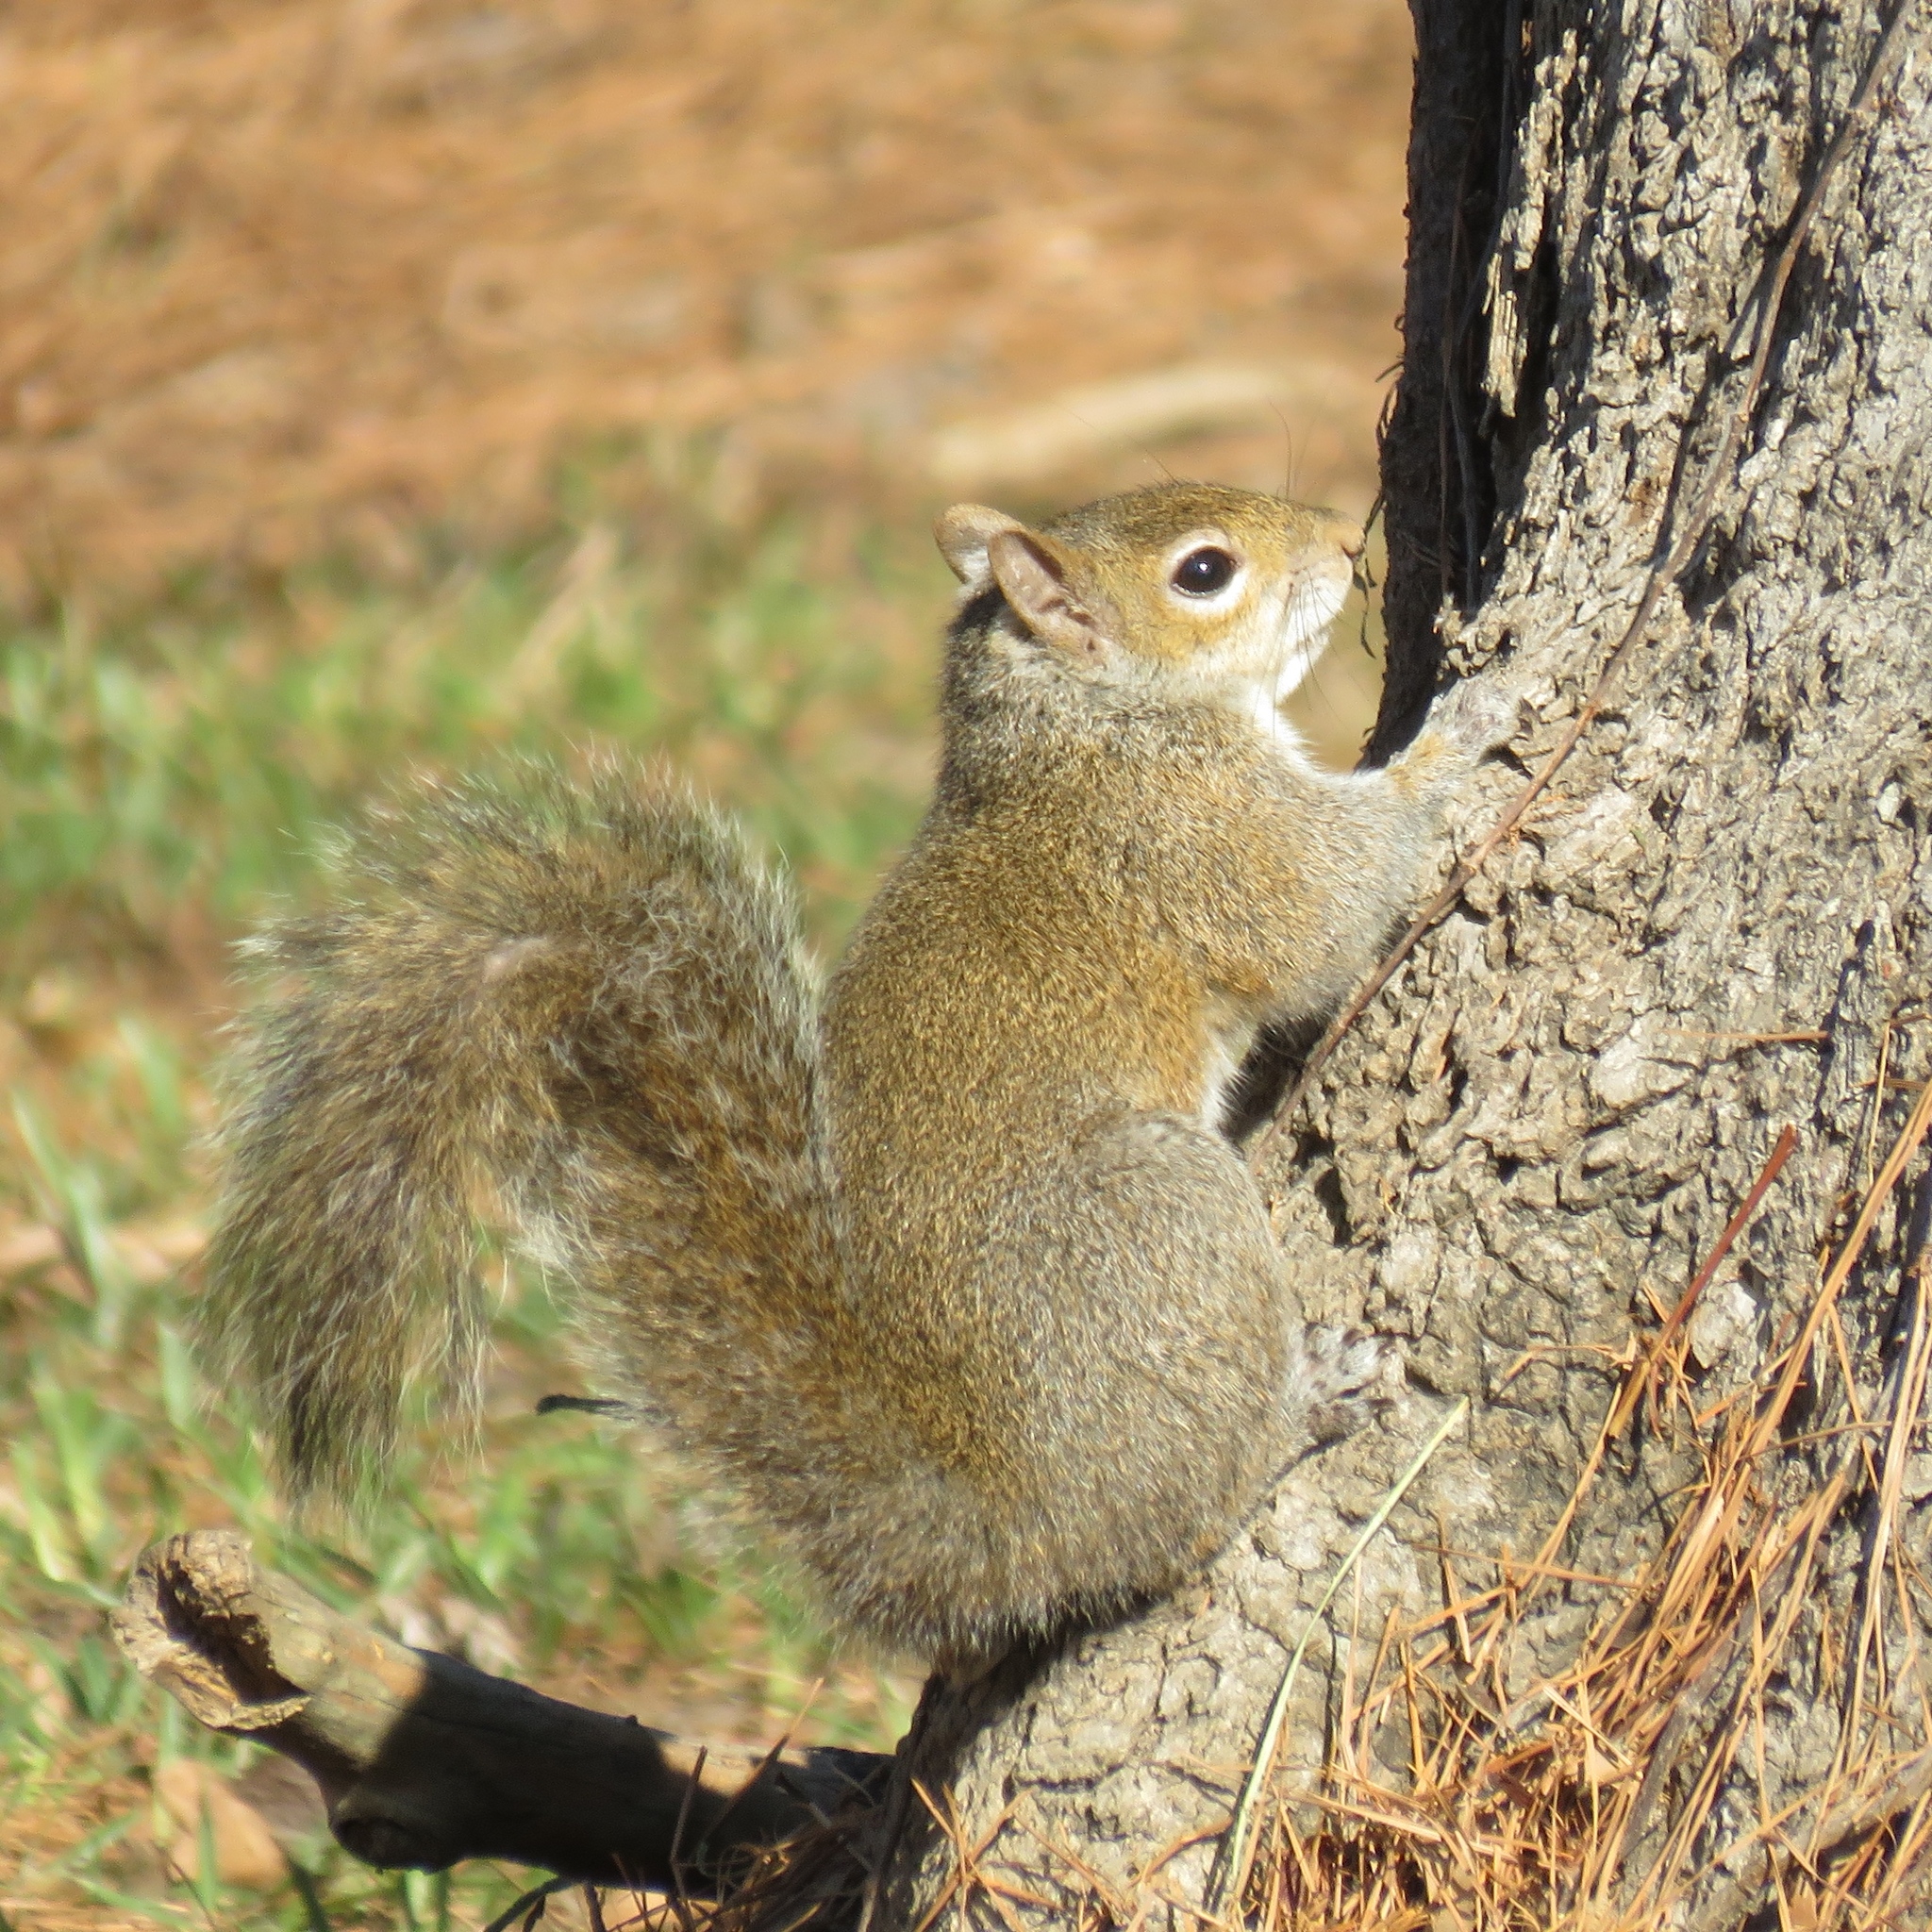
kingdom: Animalia
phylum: Chordata
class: Mammalia
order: Rodentia
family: Sciuridae
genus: Sciurus
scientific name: Sciurus carolinensis
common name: Eastern gray squirrel
